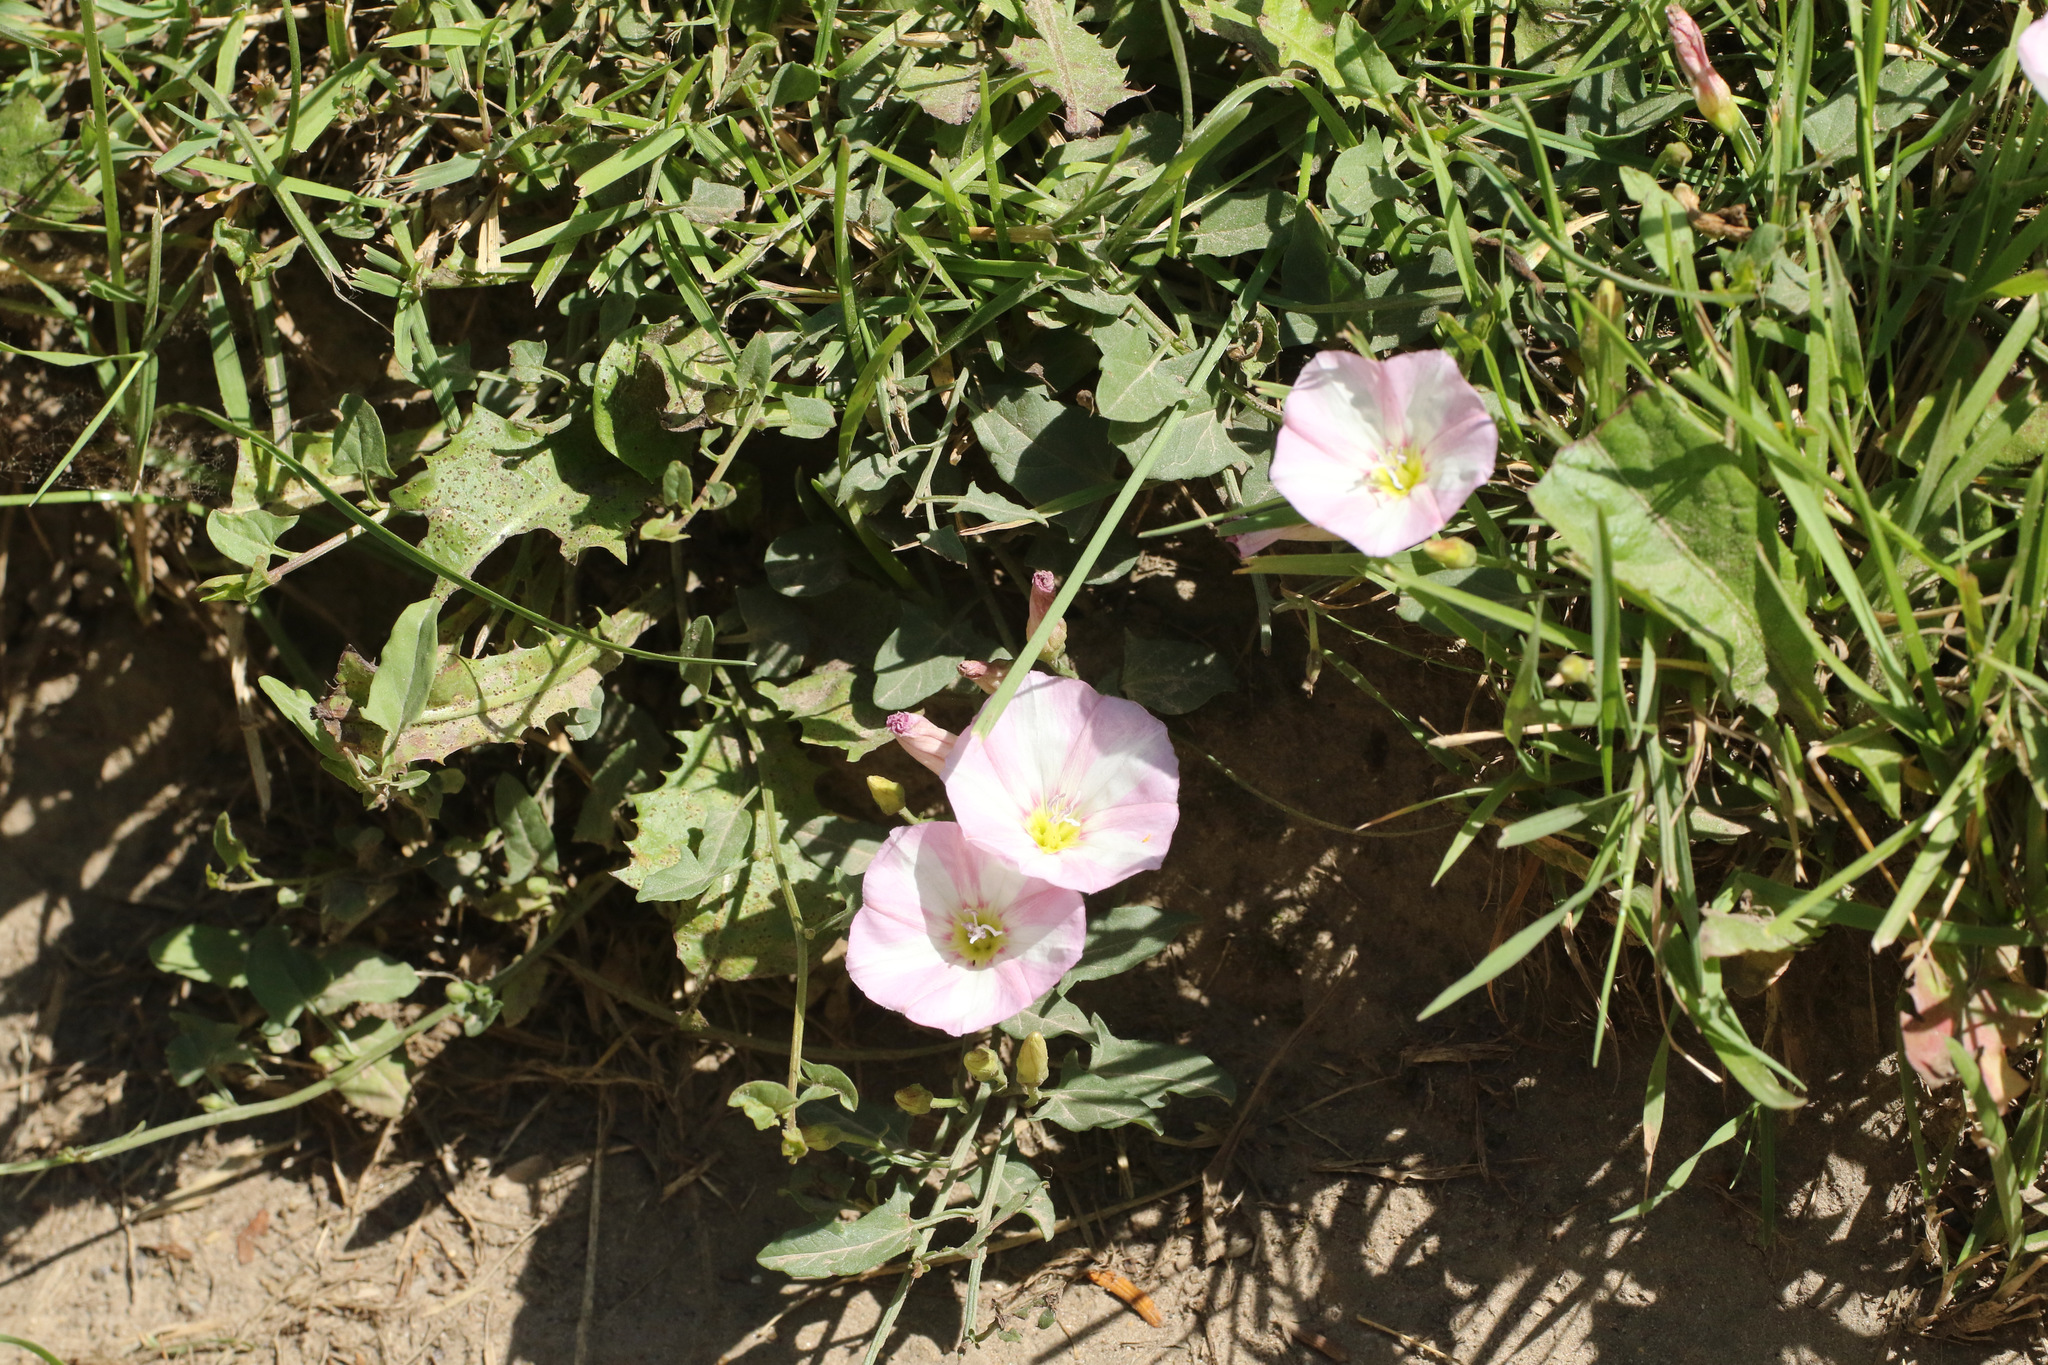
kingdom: Plantae
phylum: Tracheophyta
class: Magnoliopsida
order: Solanales
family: Convolvulaceae
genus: Convolvulus
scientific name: Convolvulus arvensis
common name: Field bindweed
